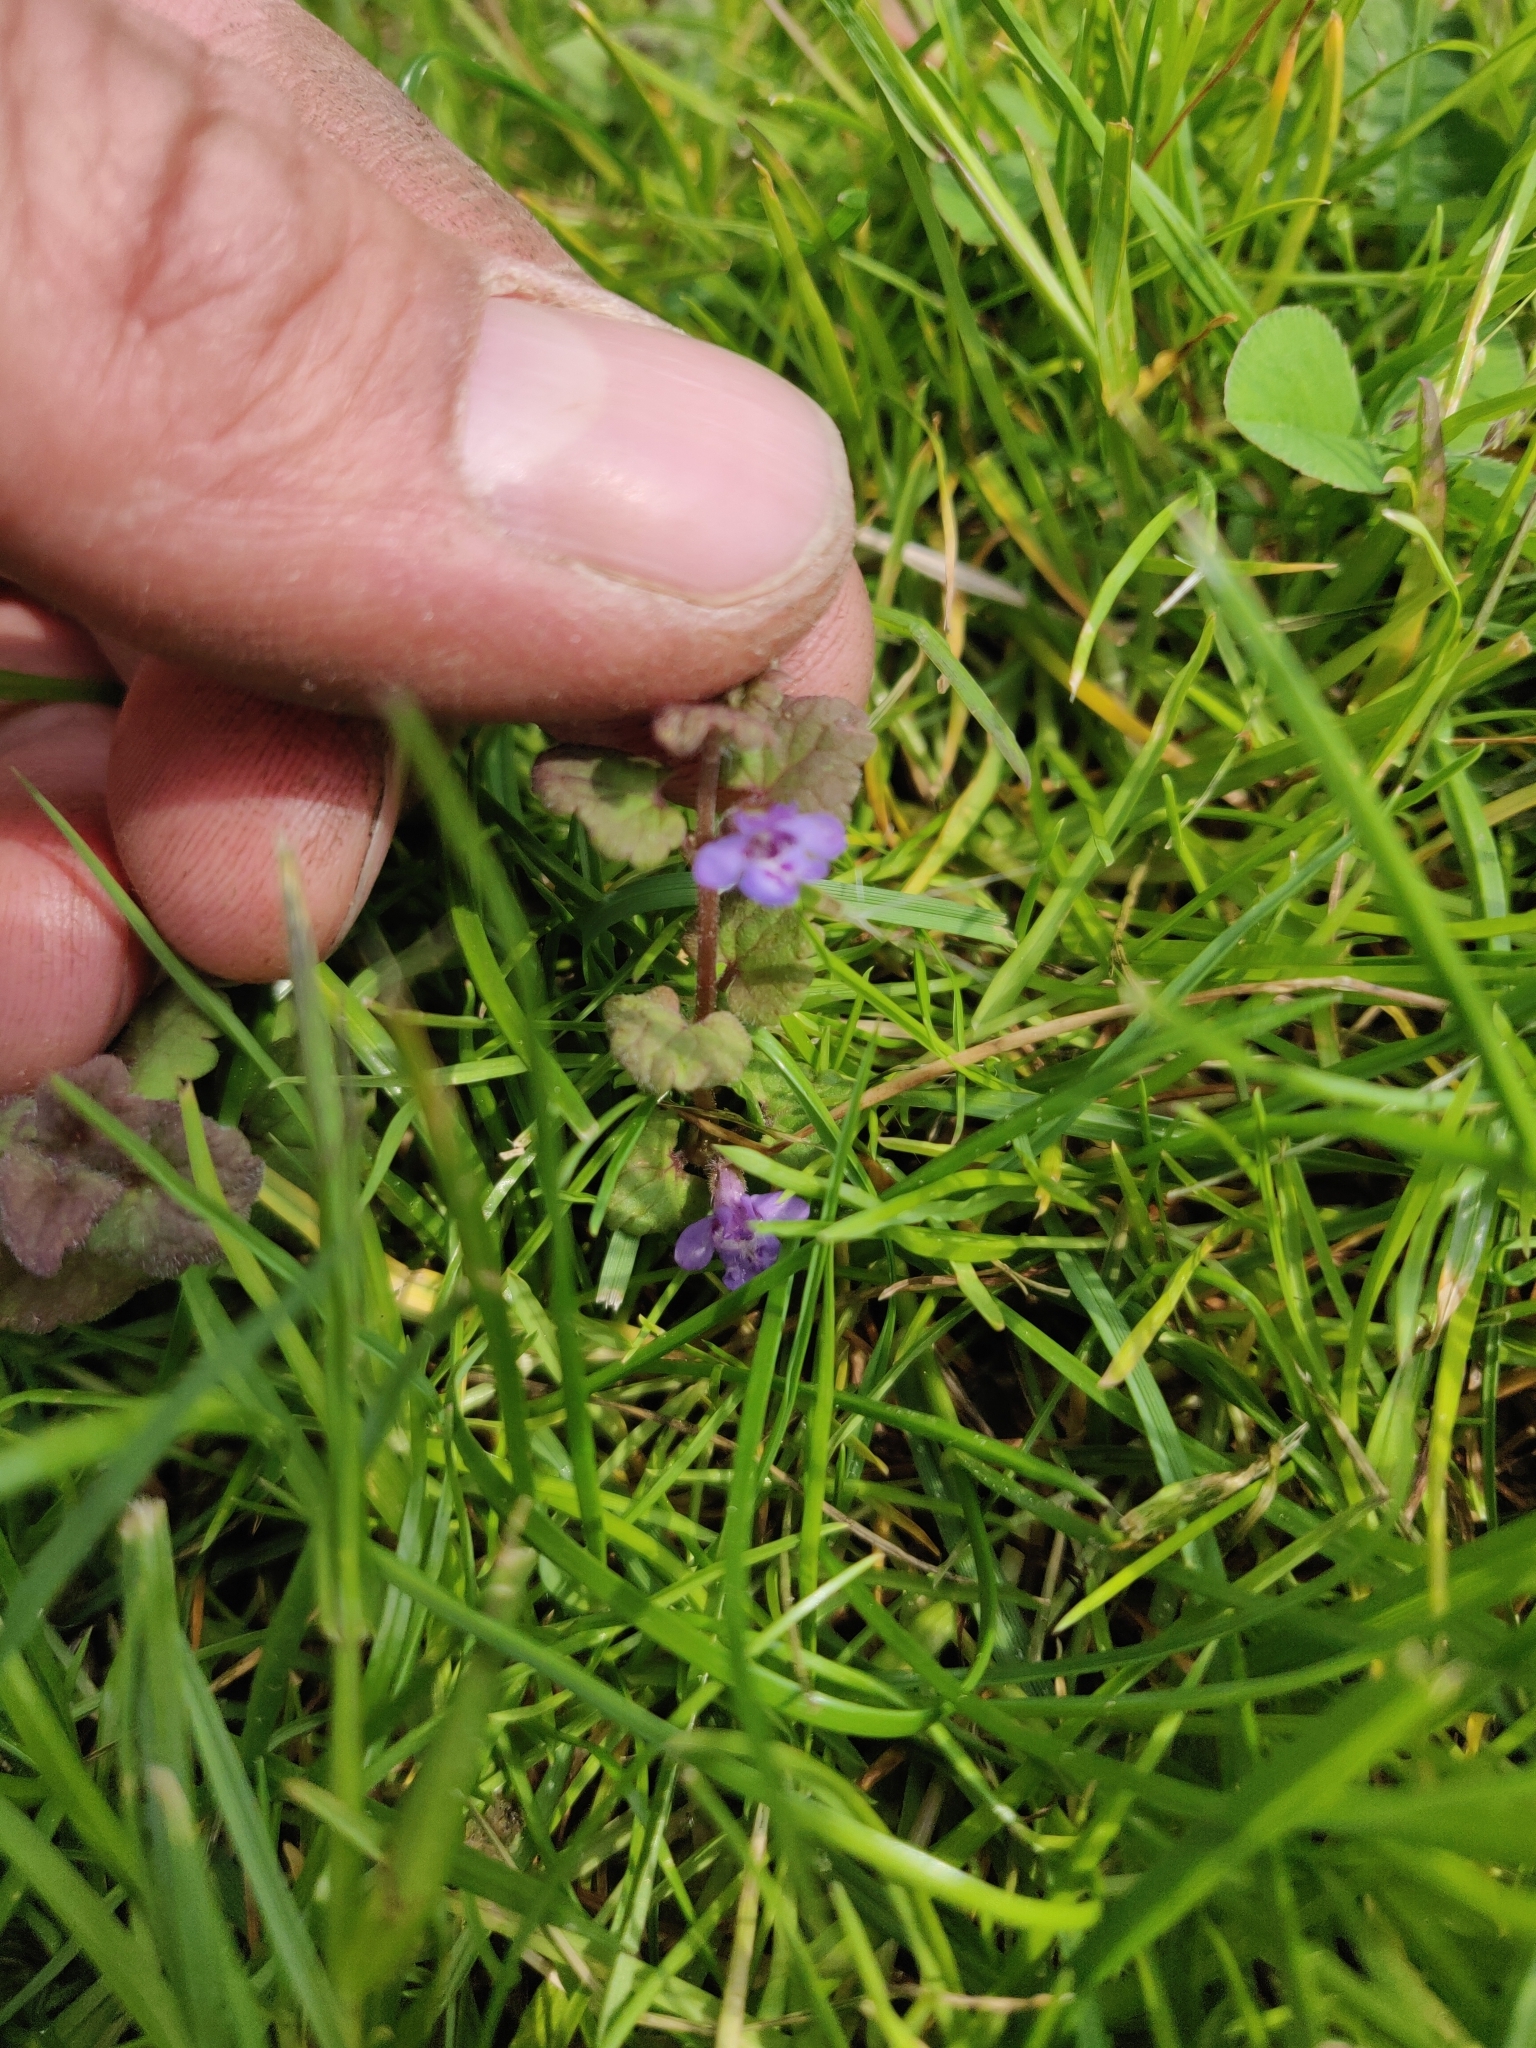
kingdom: Plantae
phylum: Tracheophyta
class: Magnoliopsida
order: Lamiales
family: Lamiaceae
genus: Glechoma
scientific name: Glechoma hederacea
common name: Ground ivy
